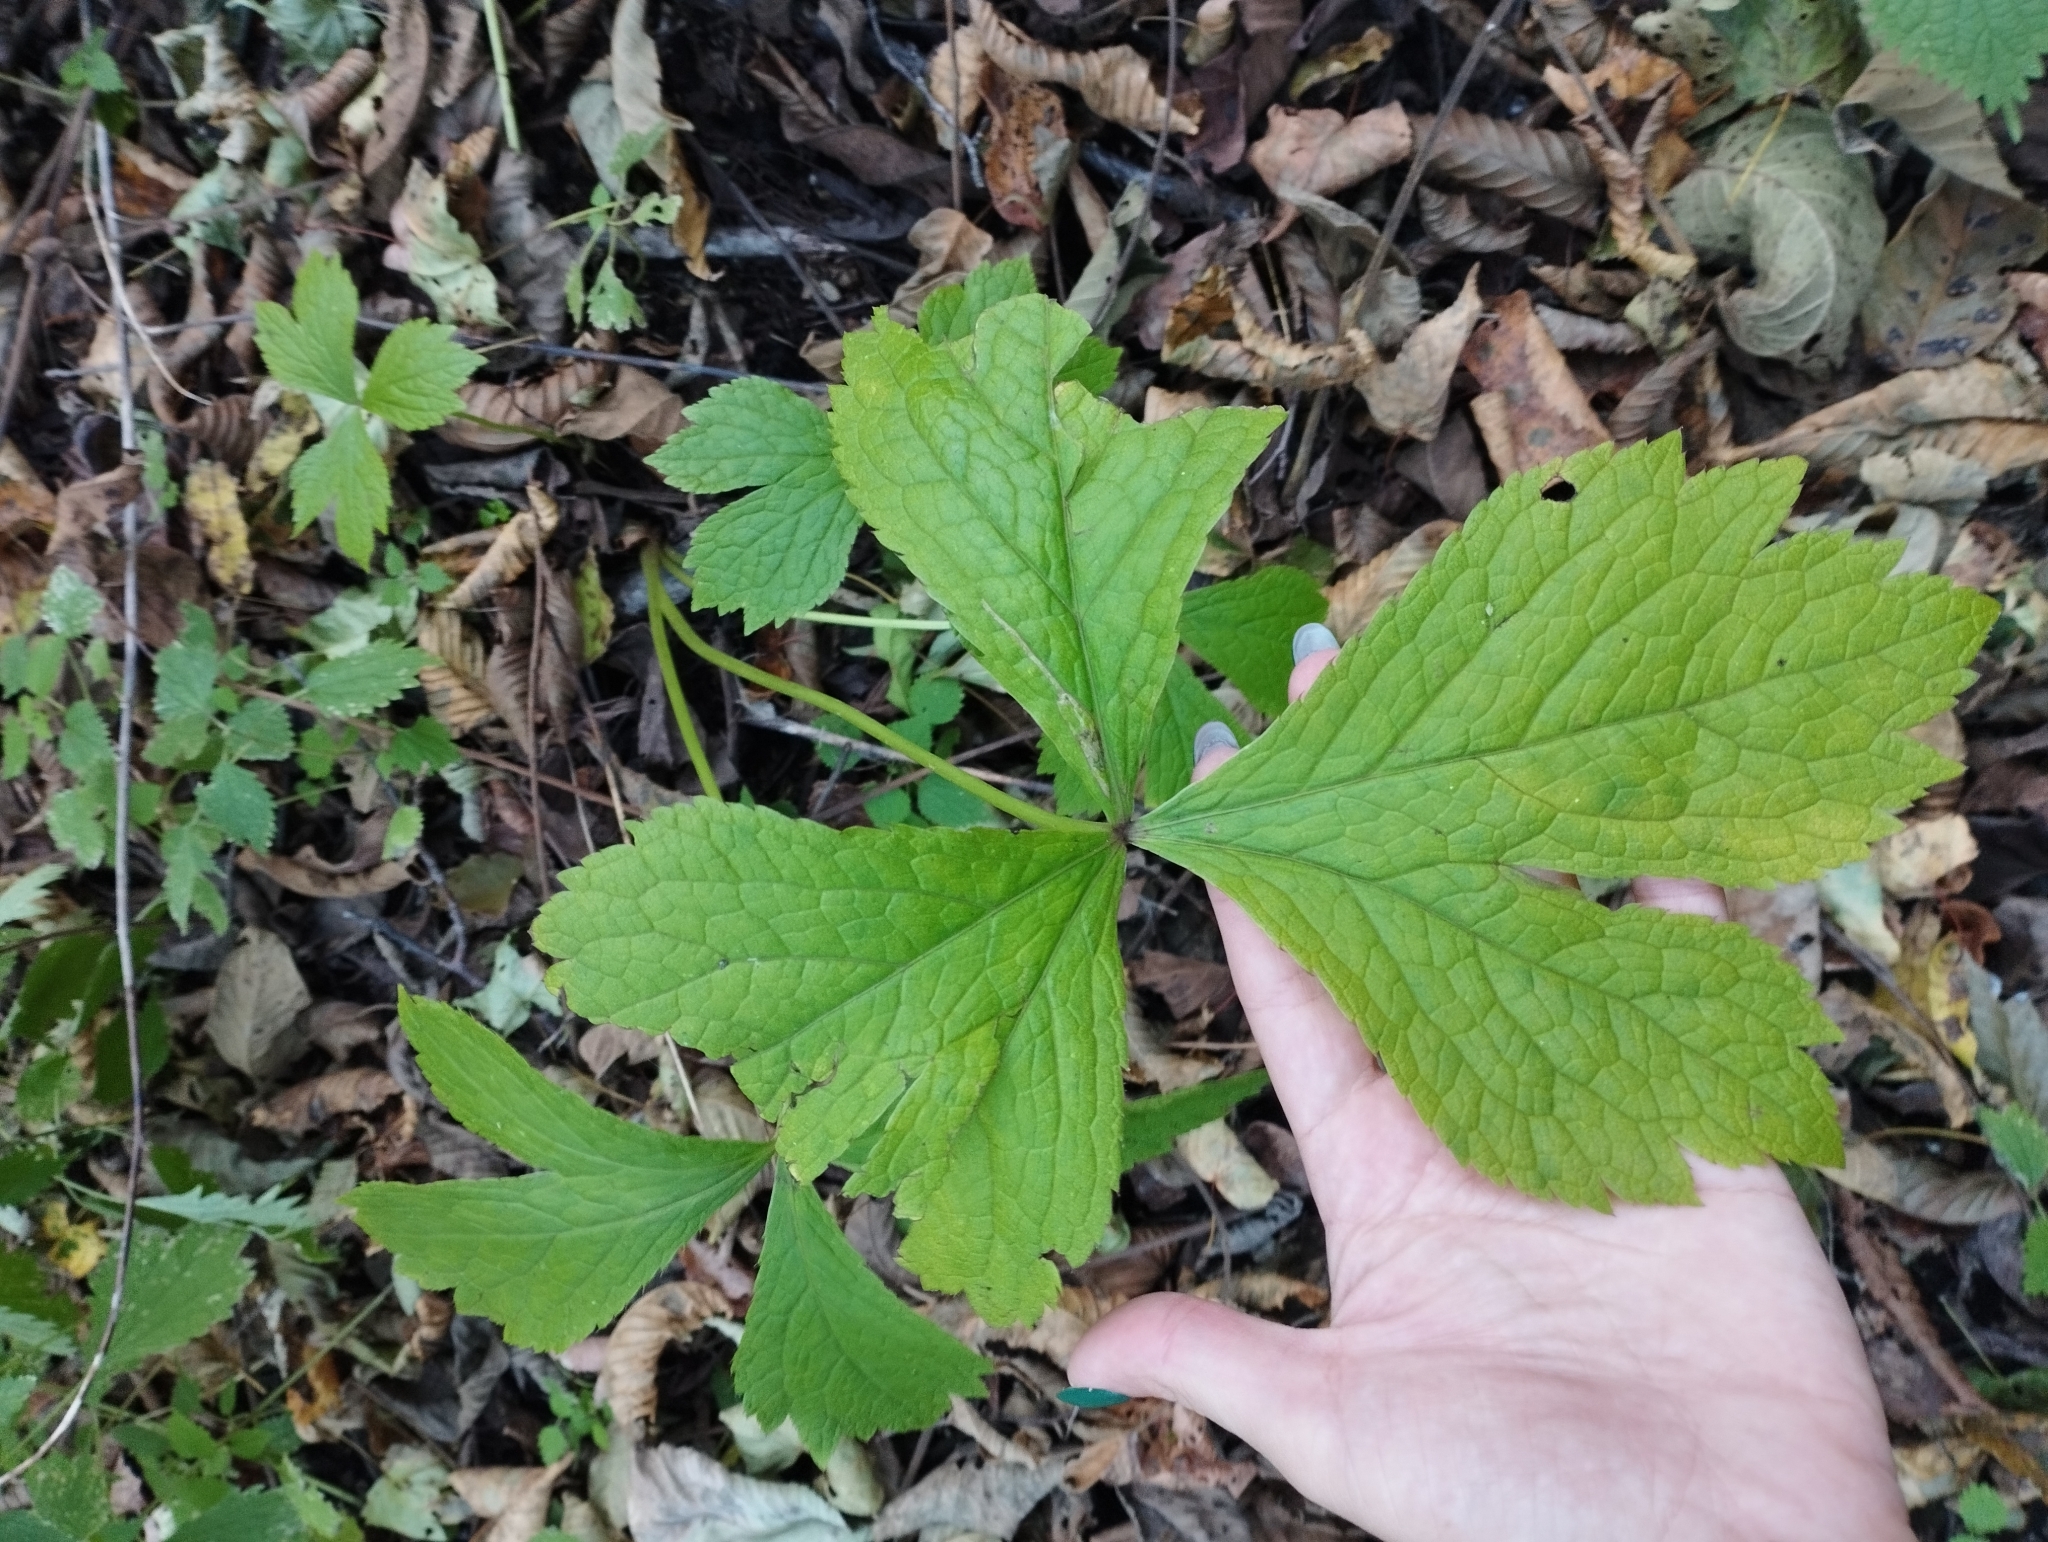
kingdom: Plantae
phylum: Tracheophyta
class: Magnoliopsida
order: Apiales
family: Apiaceae
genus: Sanicula
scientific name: Sanicula rubriflora
